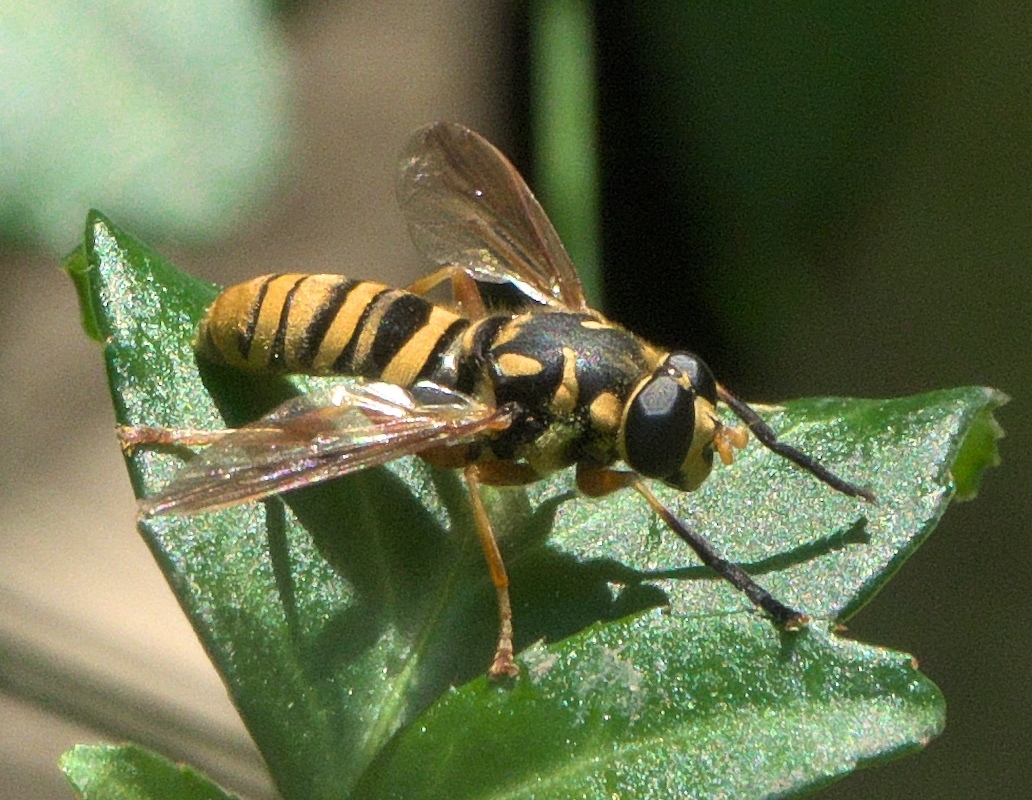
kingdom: Animalia
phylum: Arthropoda
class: Insecta
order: Diptera
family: Syrphidae
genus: Temnostoma
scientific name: Temnostoma daochum
